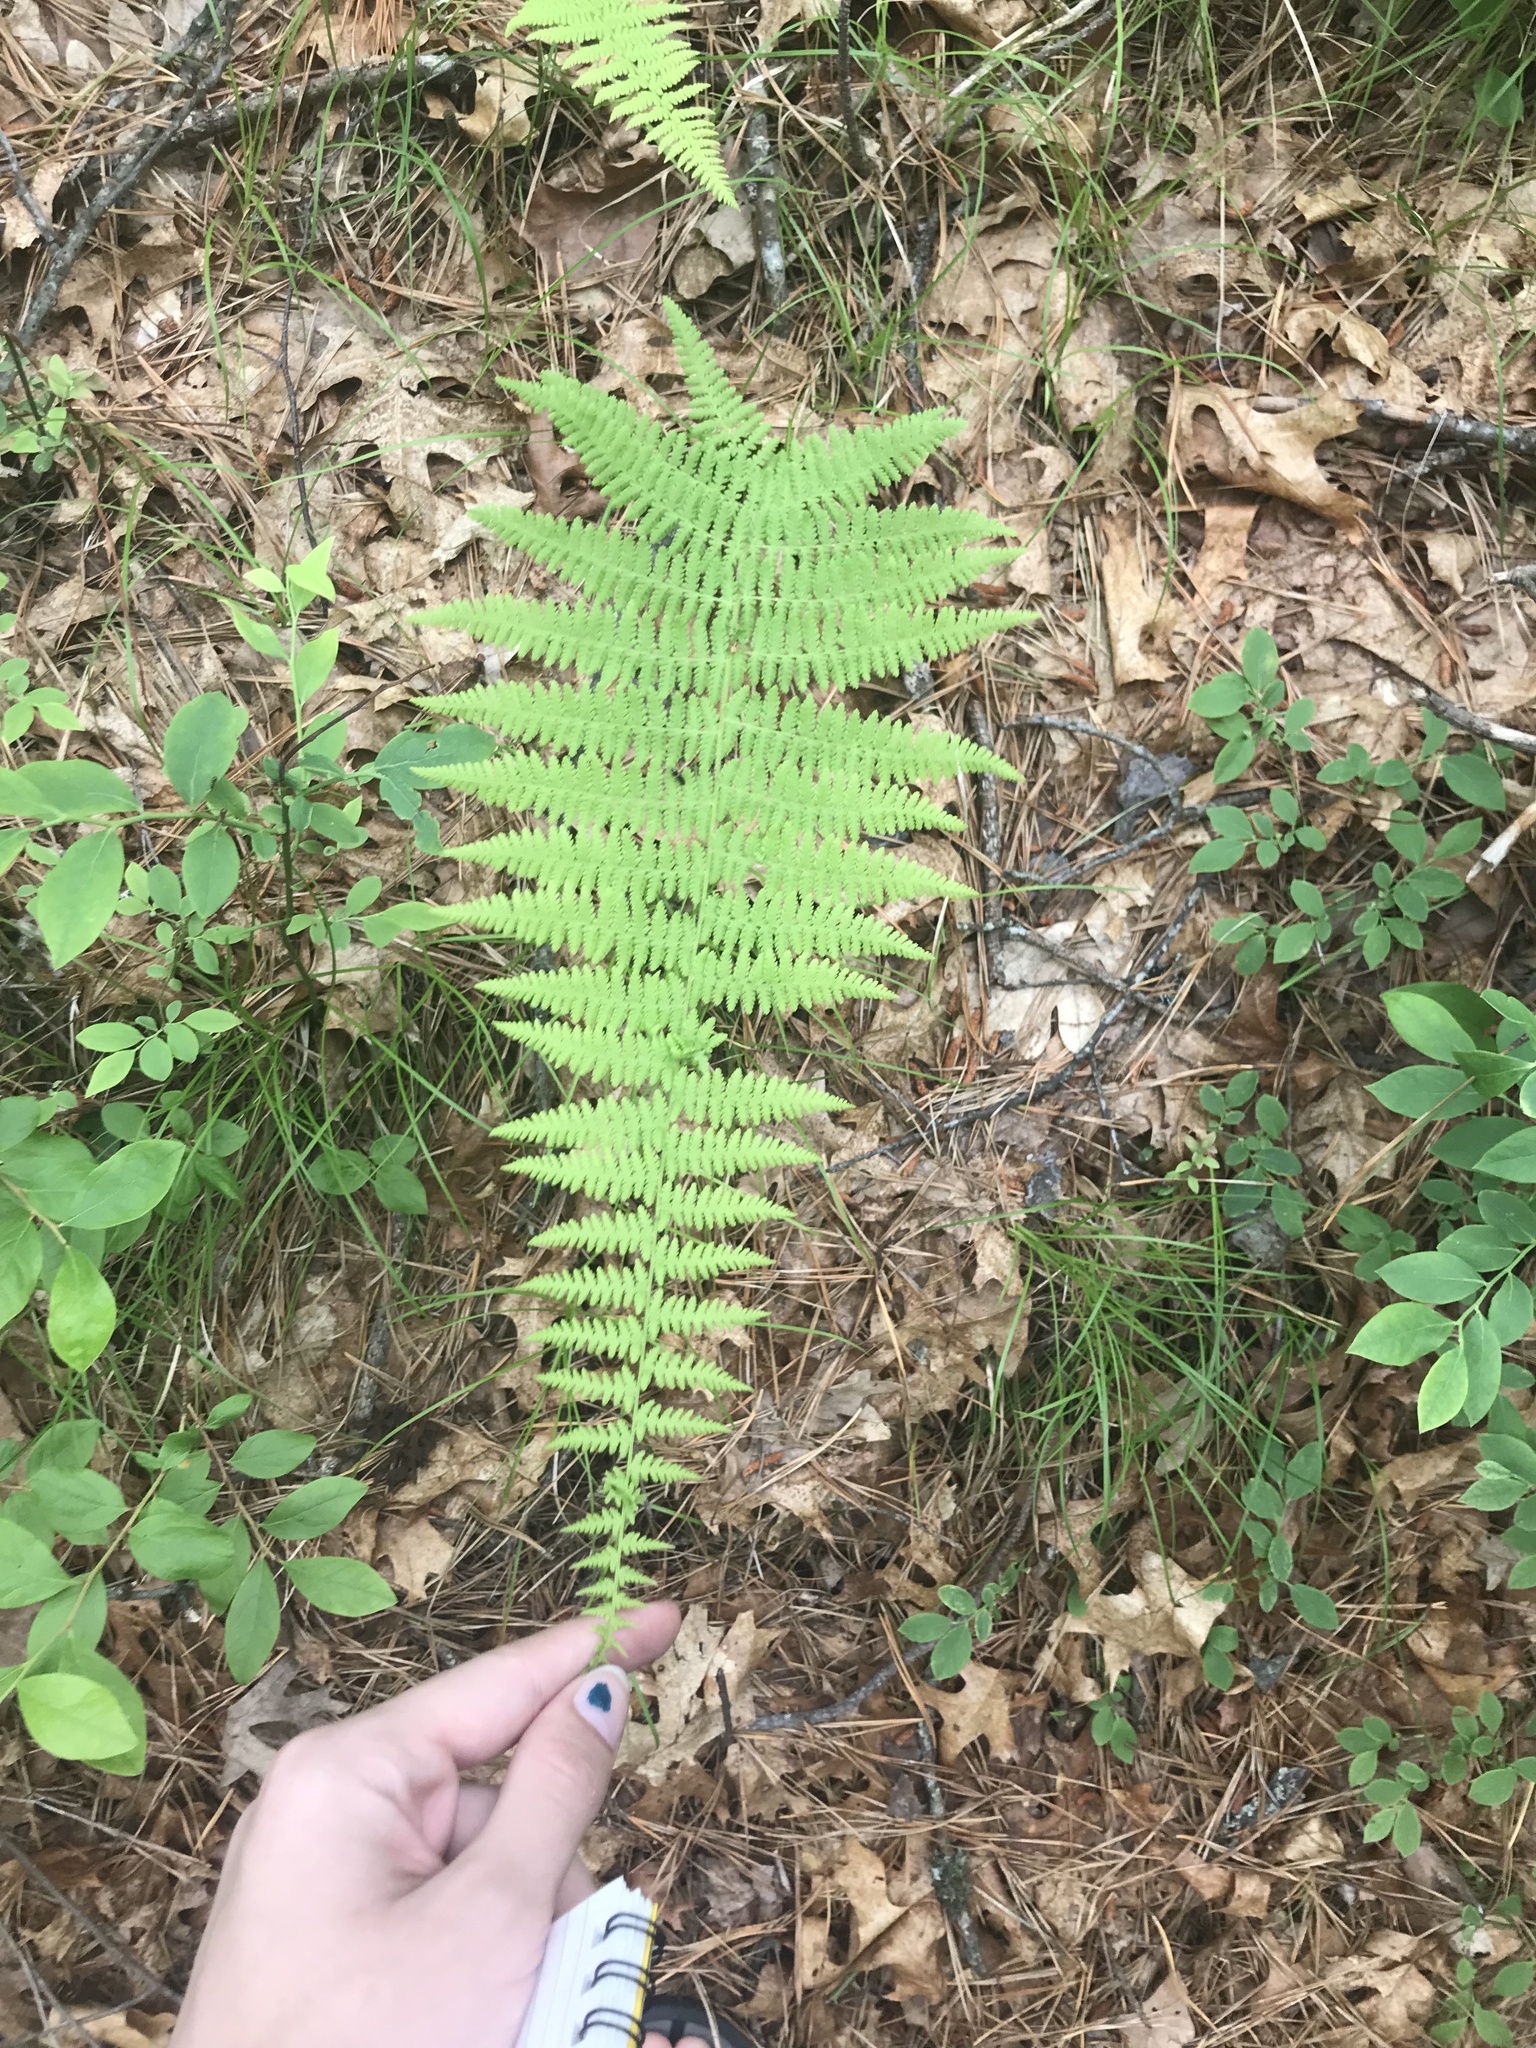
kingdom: Plantae
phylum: Tracheophyta
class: Polypodiopsida
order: Polypodiales
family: Dennstaedtiaceae
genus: Sitobolium
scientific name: Sitobolium punctilobum
